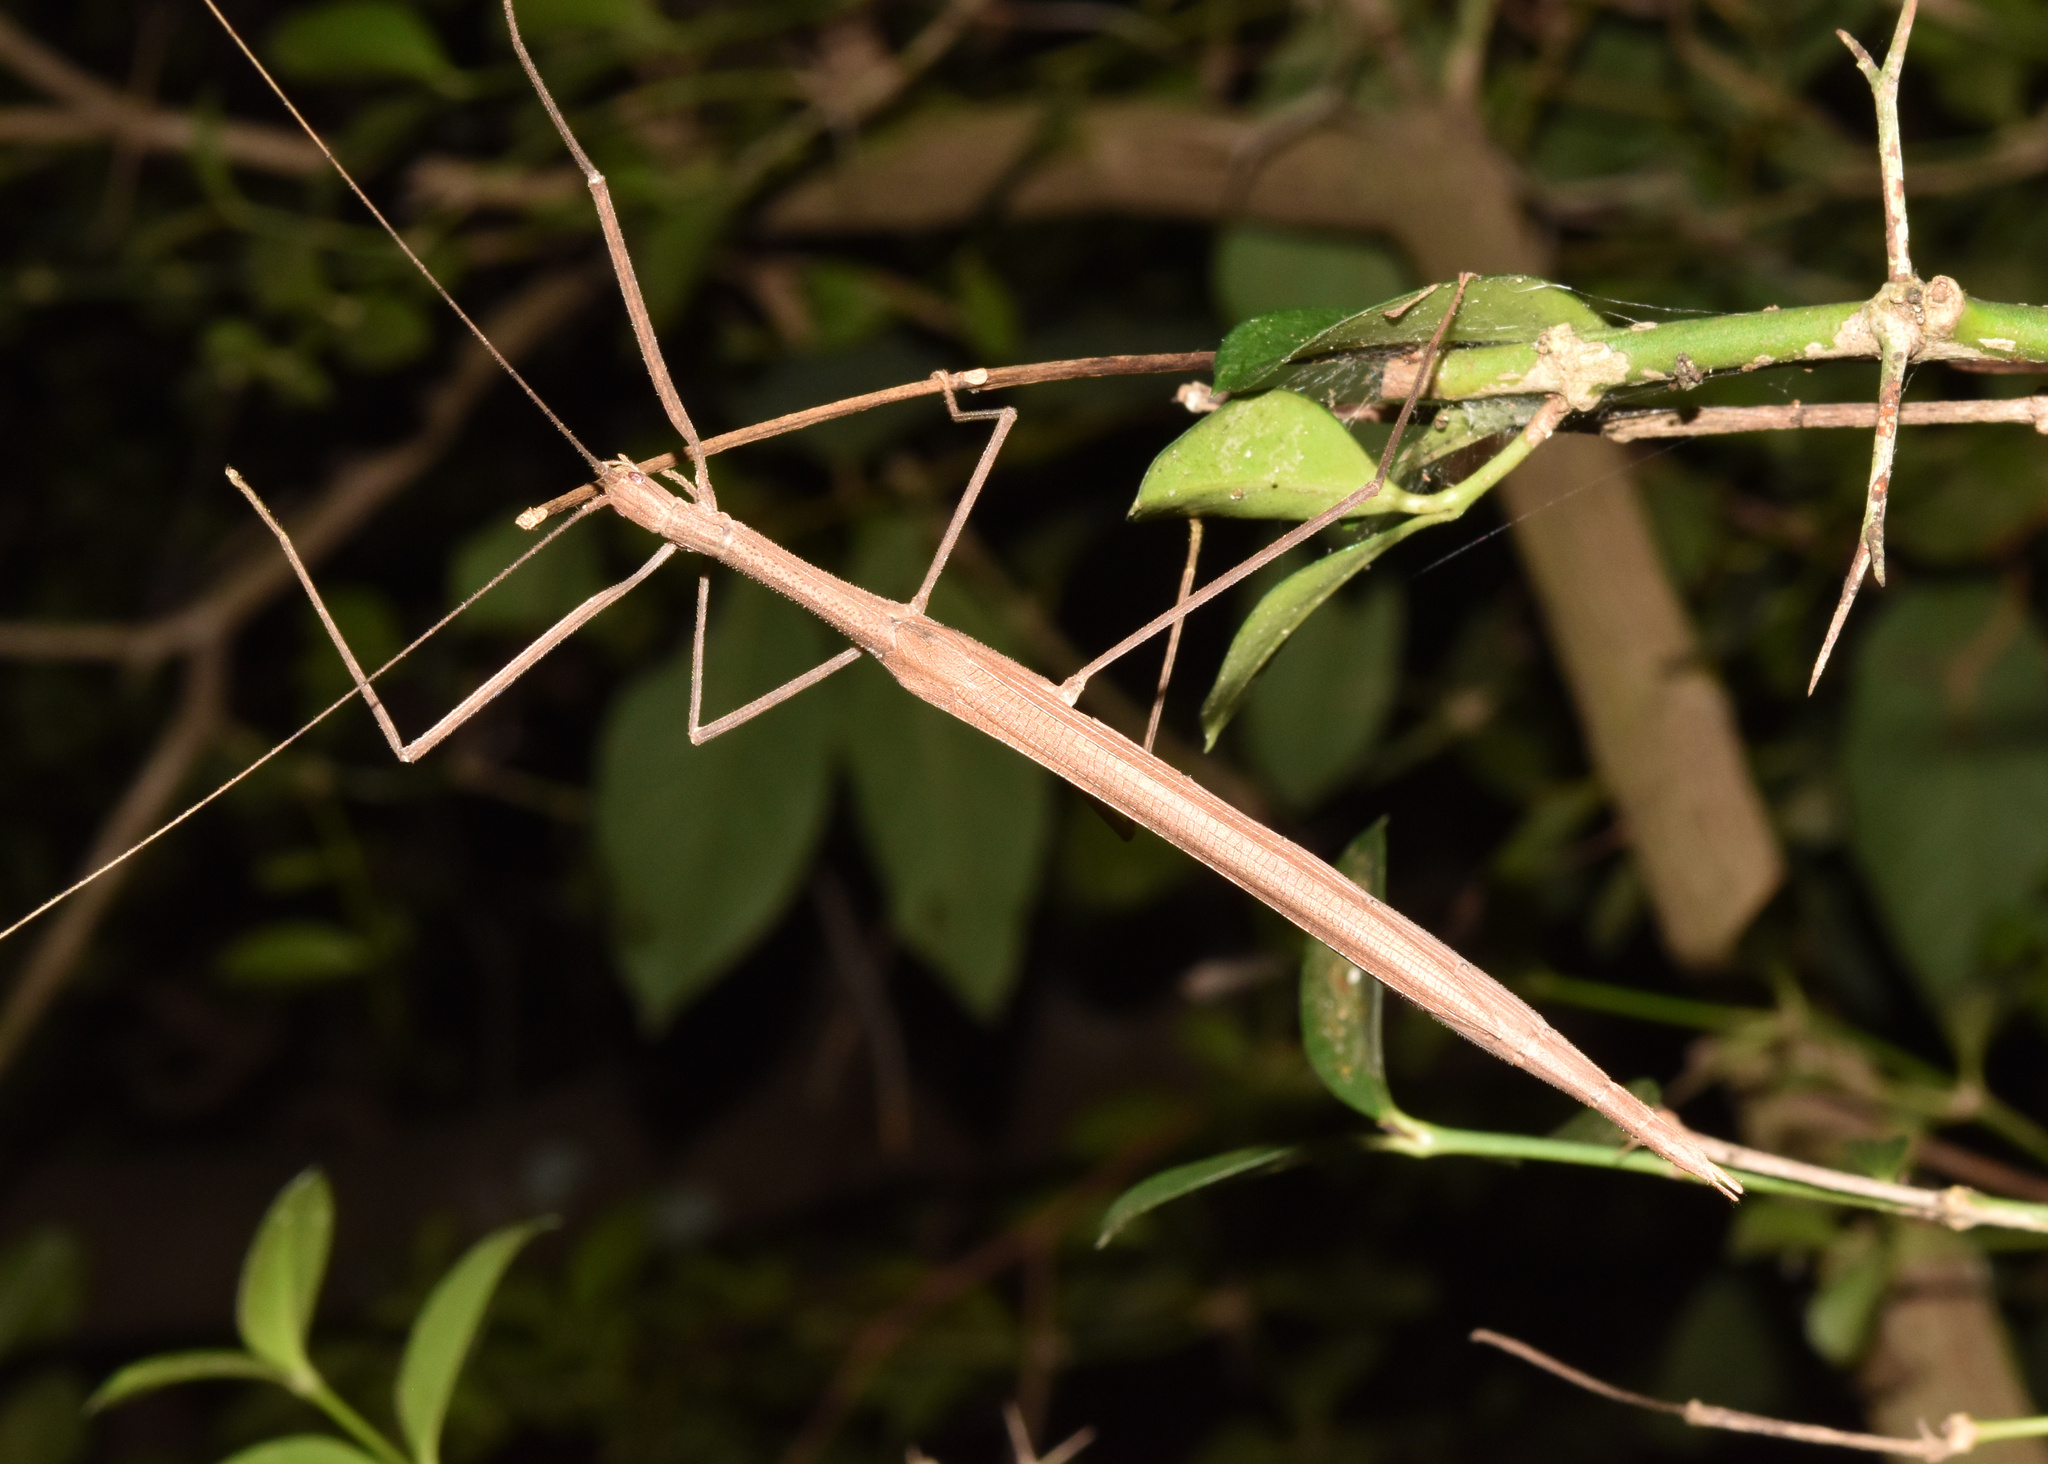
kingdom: Animalia
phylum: Arthropoda
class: Insecta
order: Phasmida
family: Lonchodidae
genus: Sipyloidea
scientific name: Sipyloidea sipylus
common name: Madagascan stick insect
